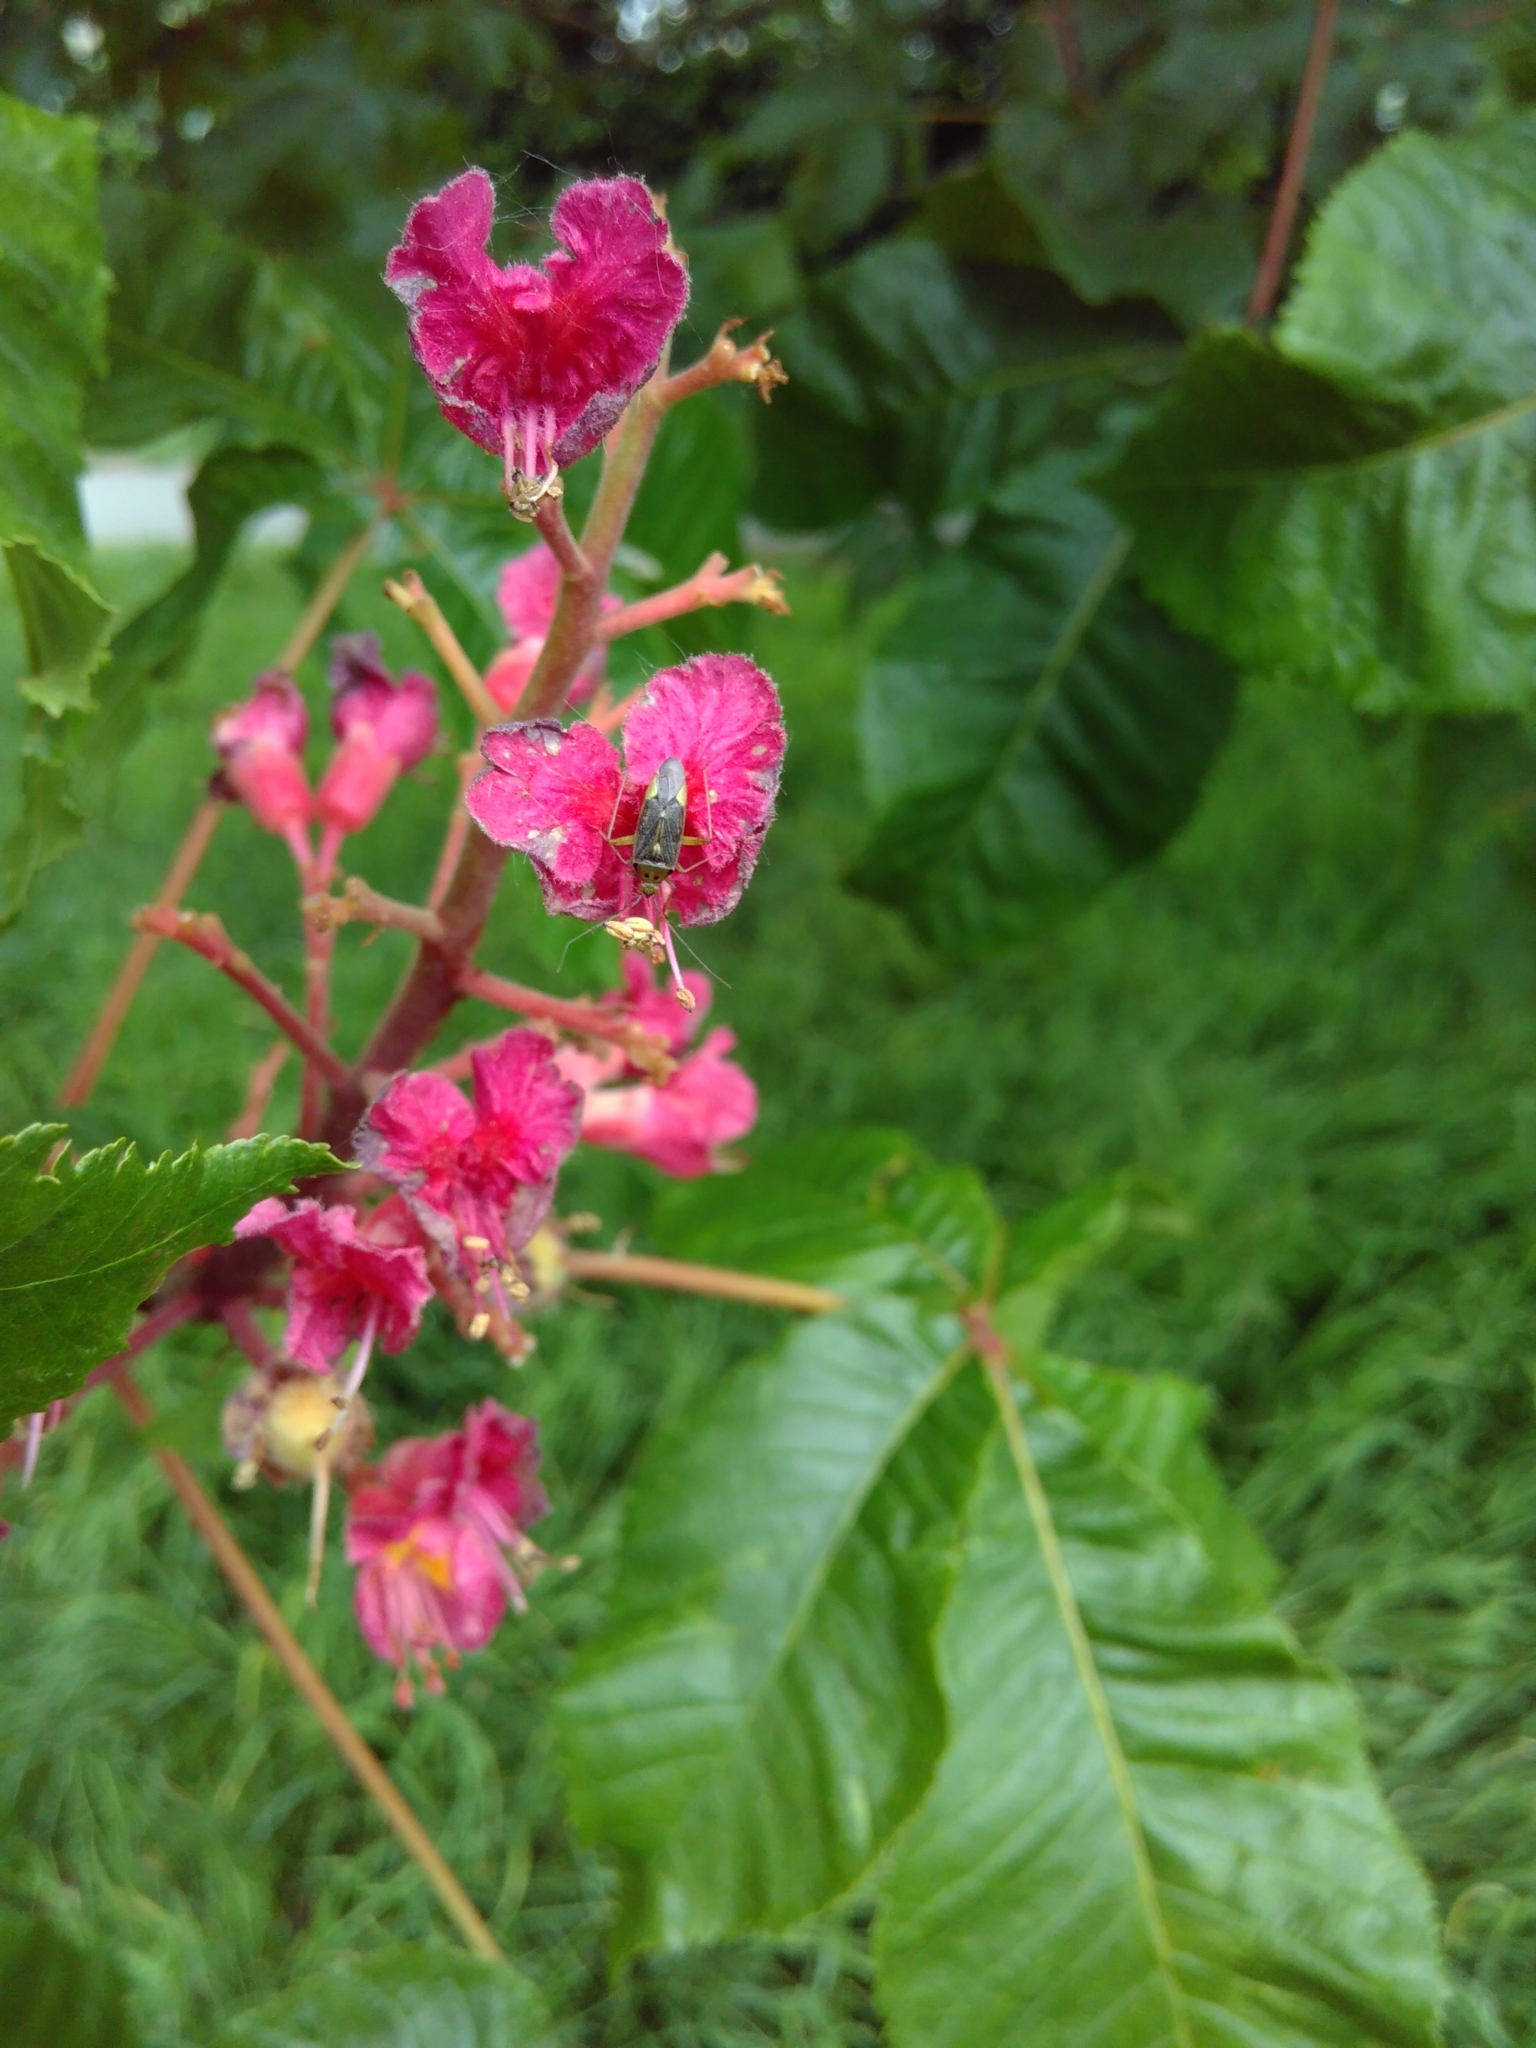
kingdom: Animalia
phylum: Arthropoda
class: Insecta
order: Hemiptera
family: Miridae
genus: Closterotomus
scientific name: Closterotomus trivialis
